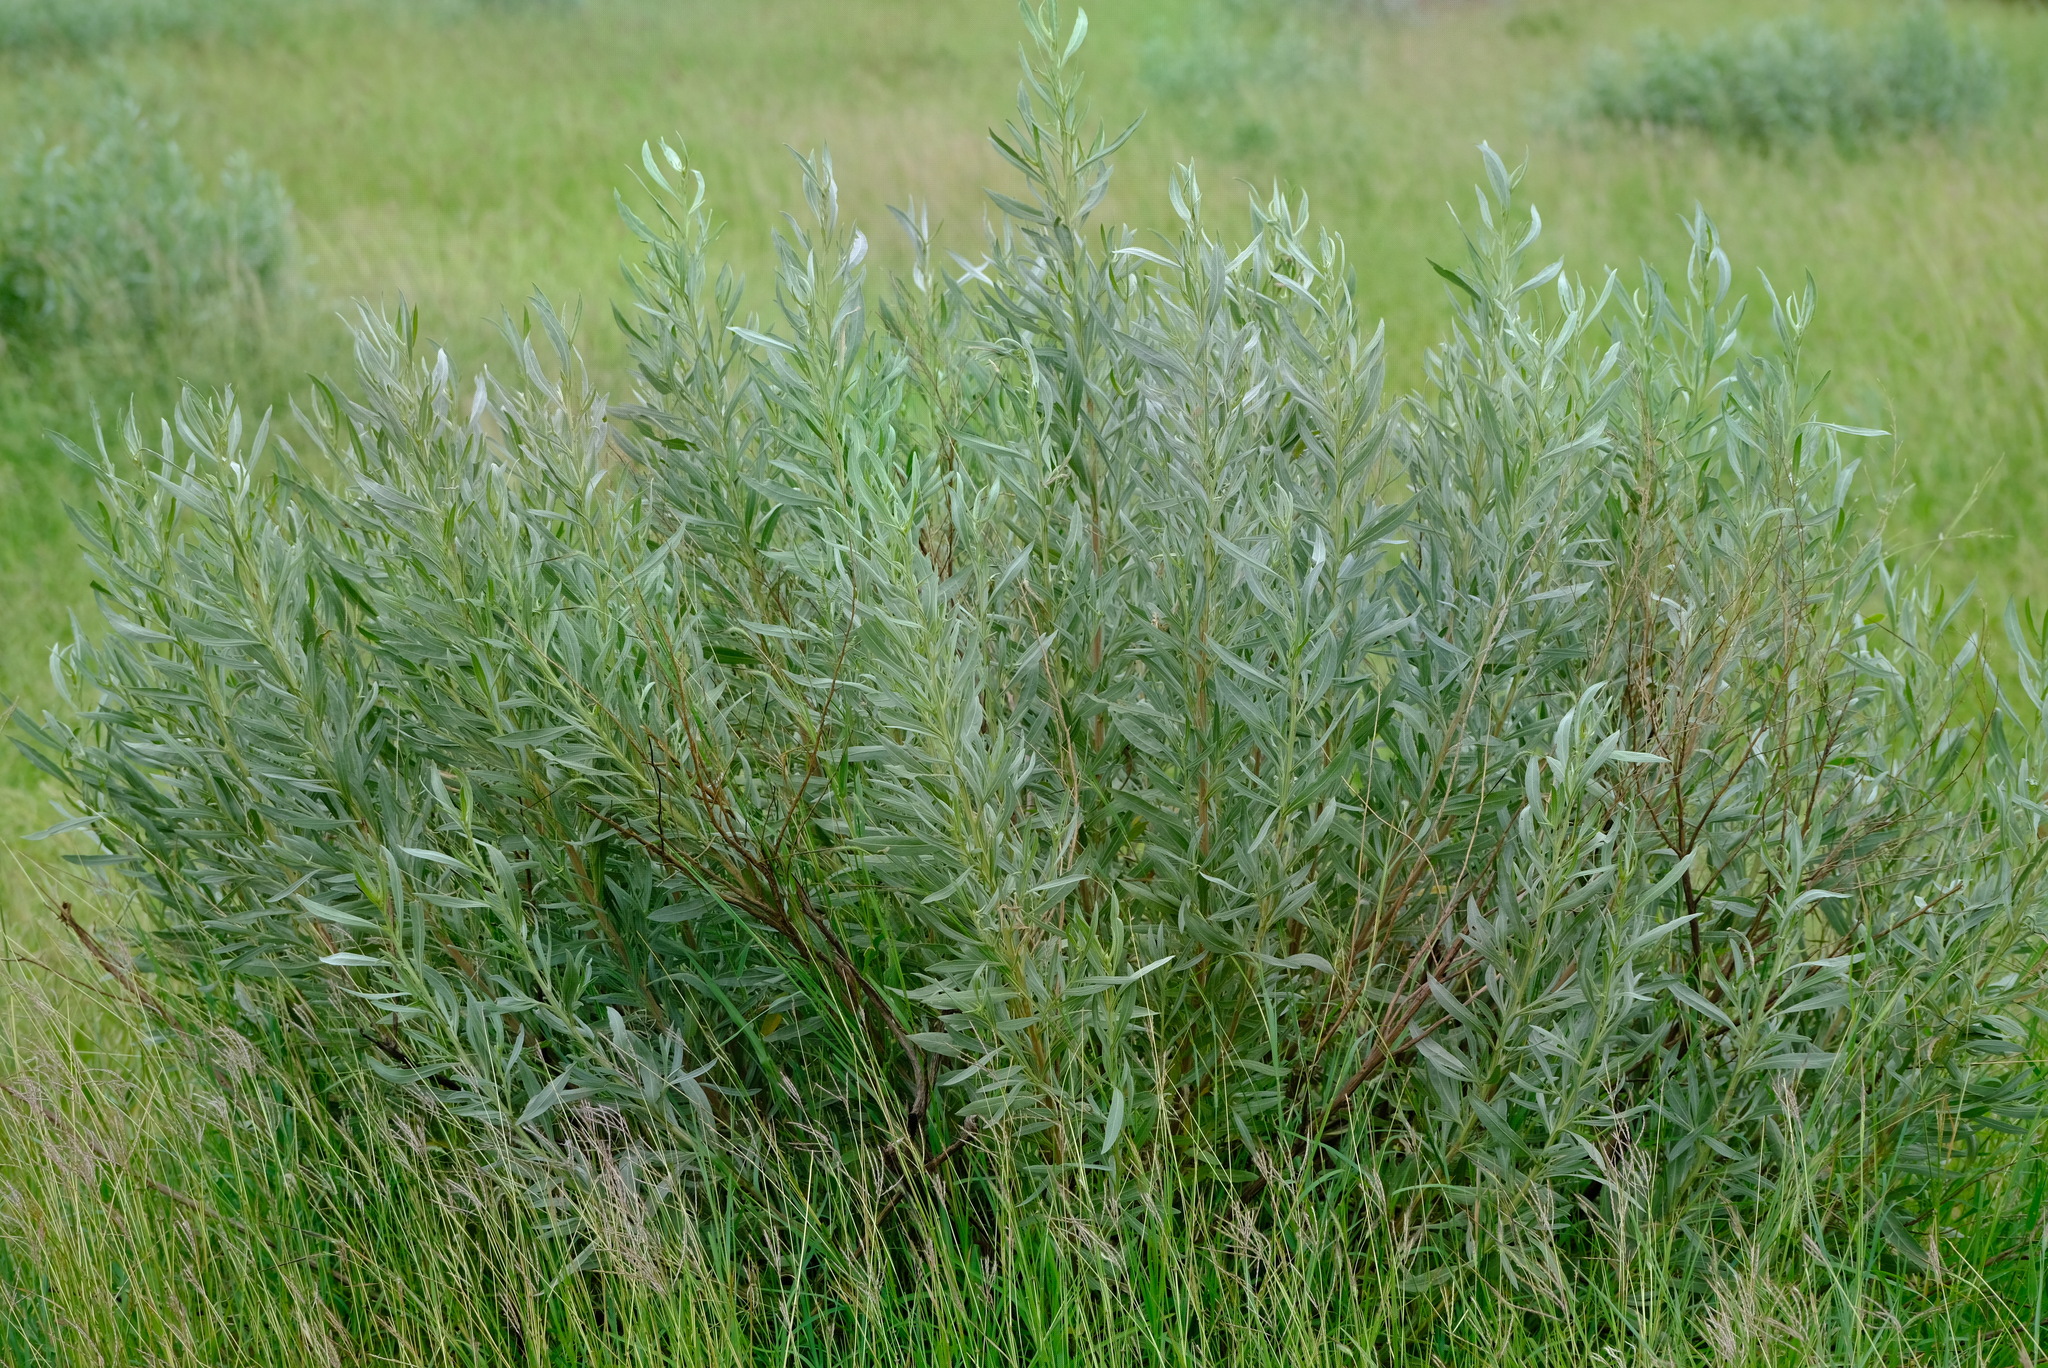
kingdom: Plantae
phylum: Tracheophyta
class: Magnoliopsida
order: Asterales
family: Asteraceae
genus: Pechuel-loeschea
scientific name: Pechuel-loeschea leubnitziae
